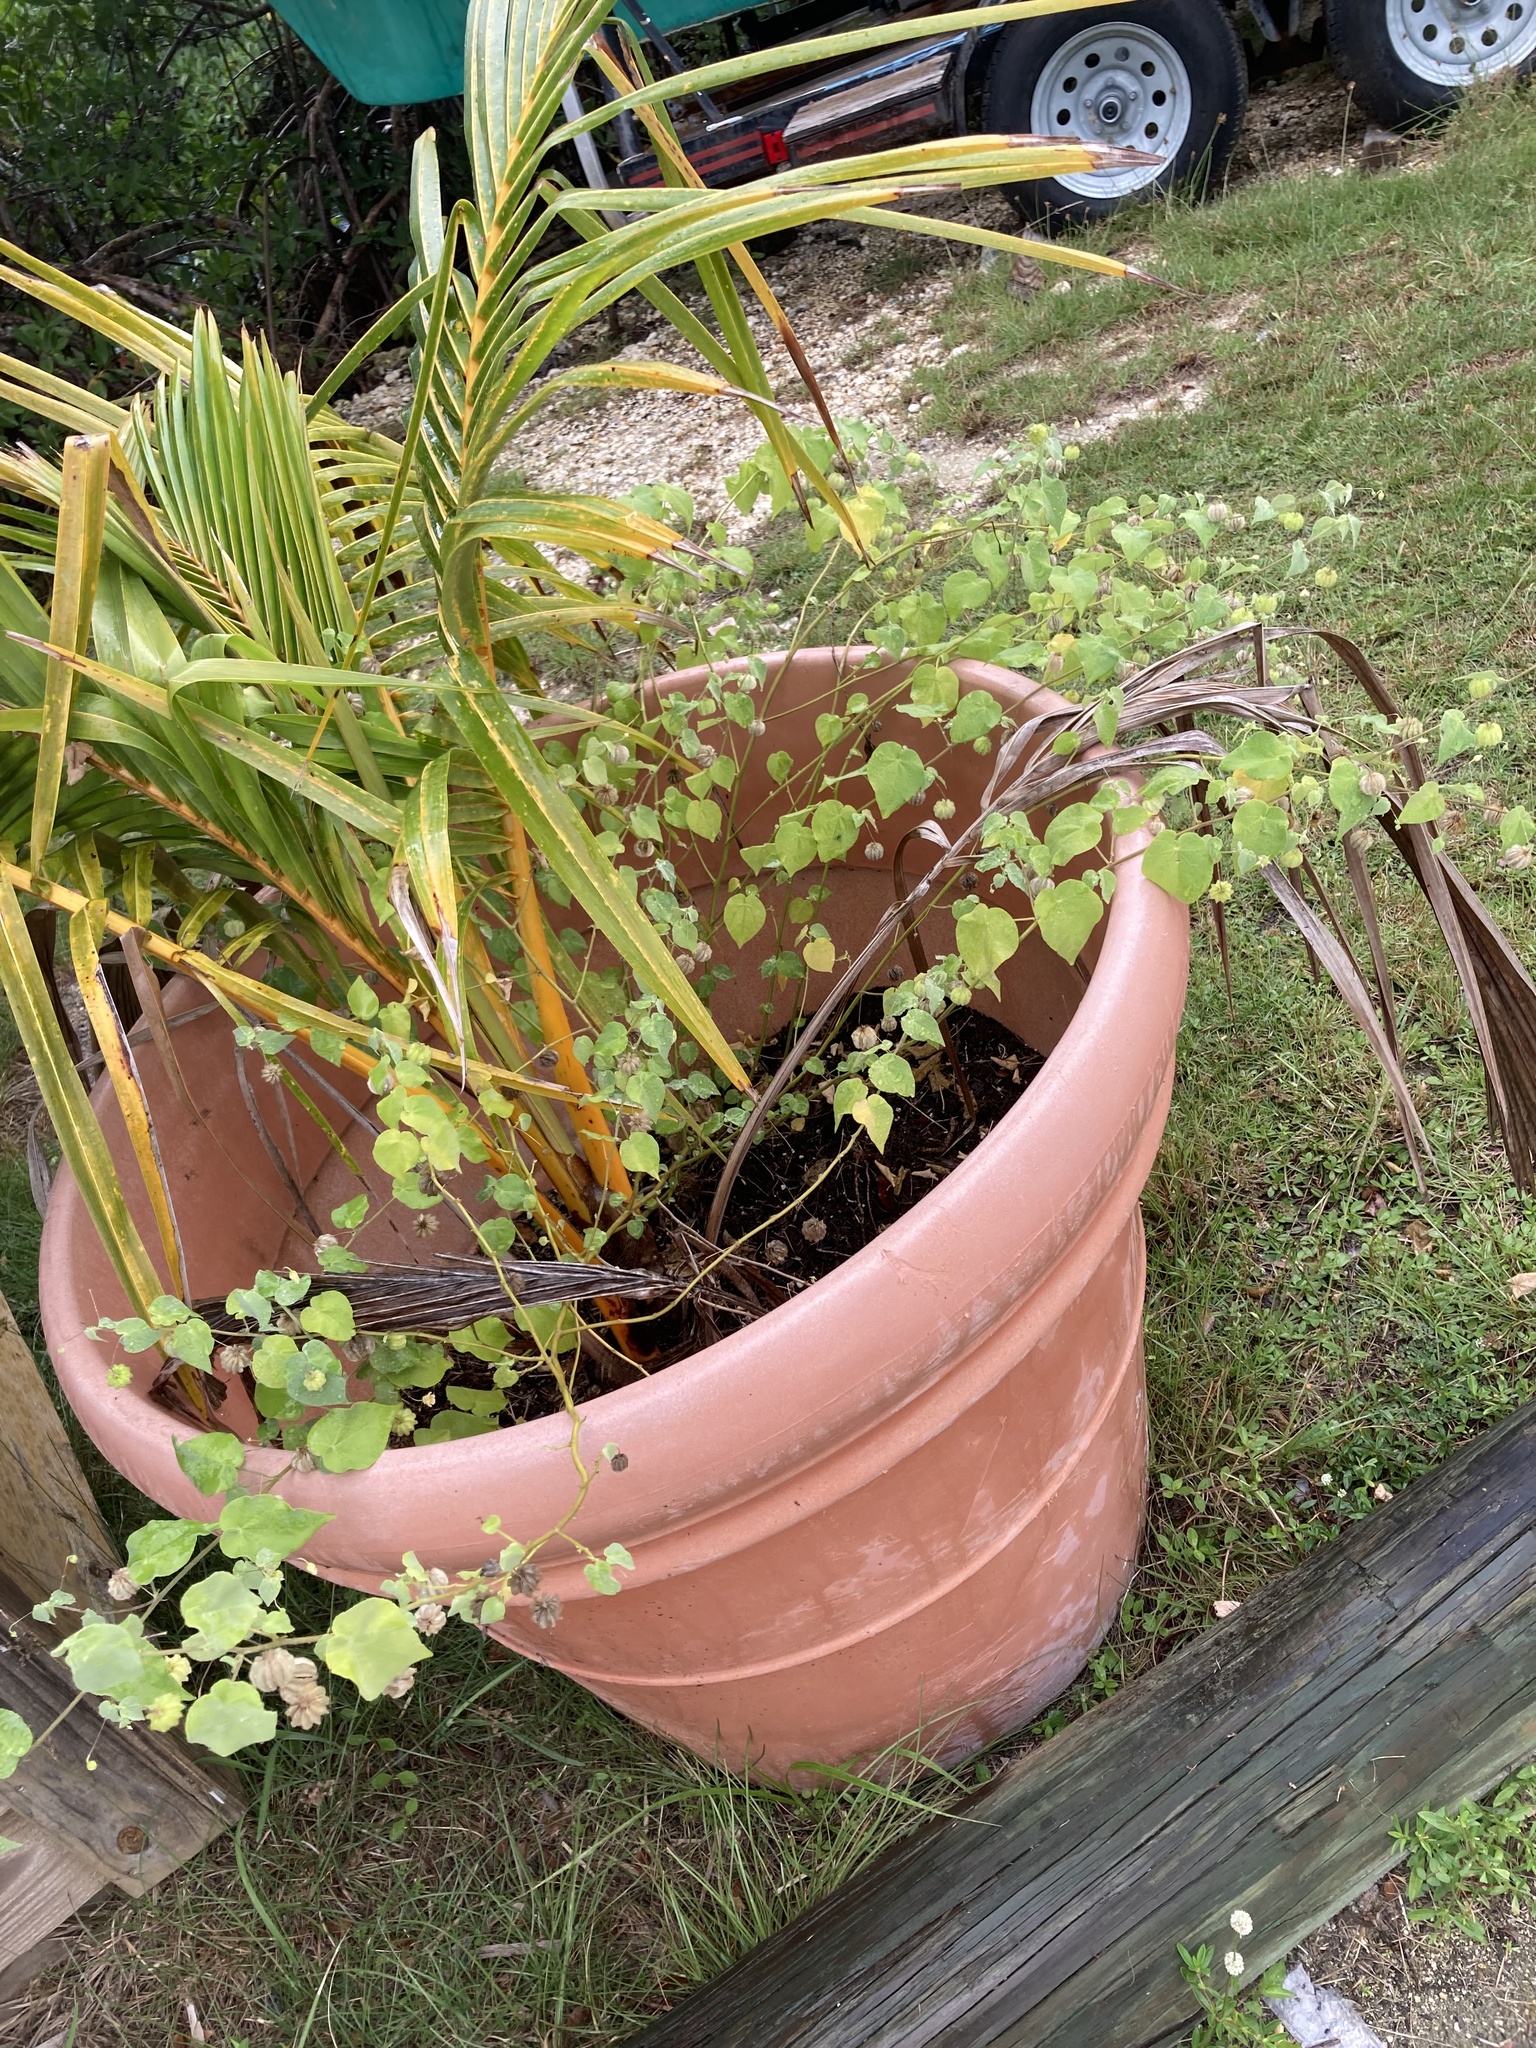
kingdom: Plantae
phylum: Tracheophyta
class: Magnoliopsida
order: Malvales
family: Malvaceae
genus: Herissantia
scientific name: Herissantia crispa
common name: Bladdermallow
